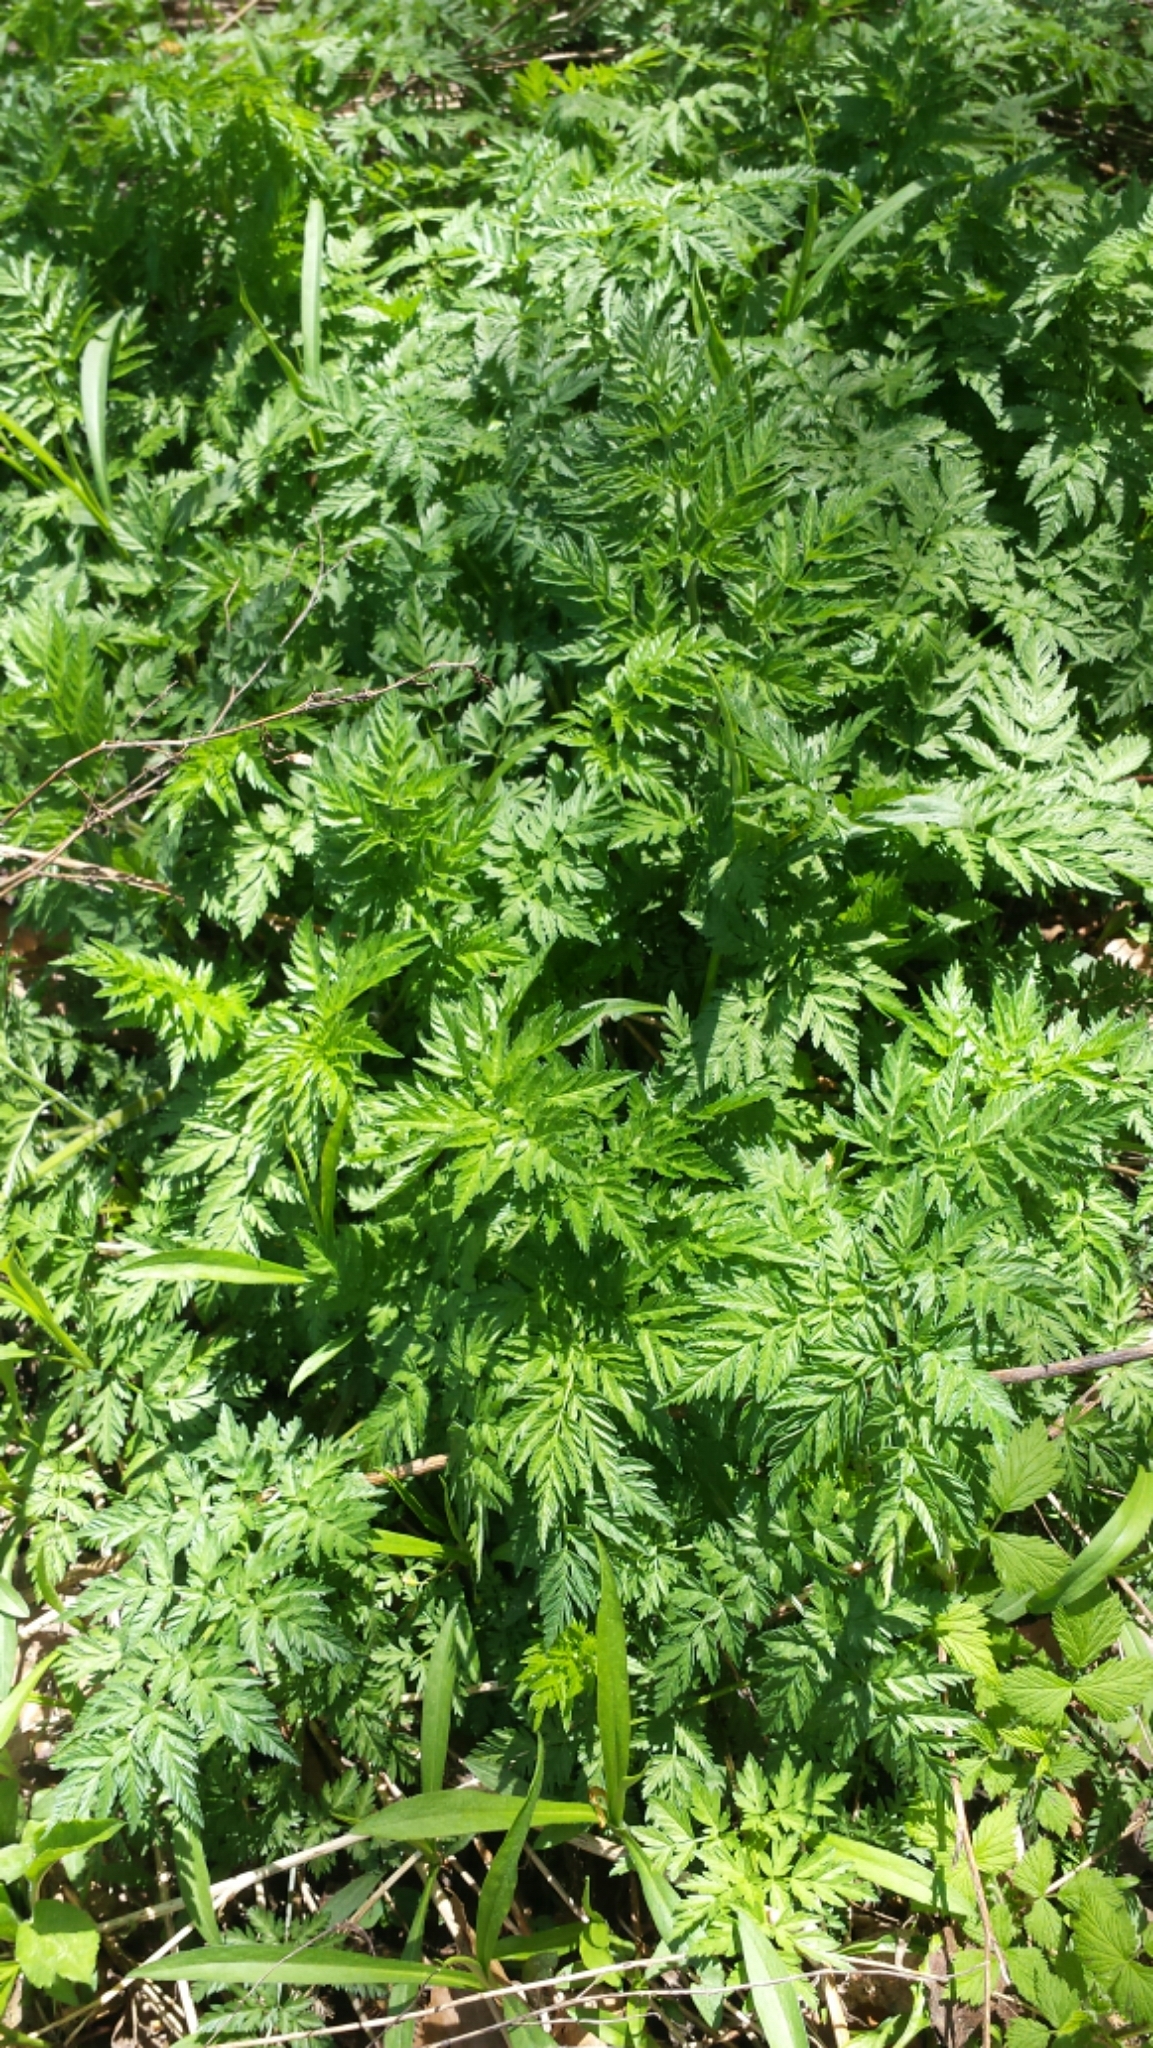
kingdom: Plantae
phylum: Tracheophyta
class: Magnoliopsida
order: Apiales
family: Apiaceae
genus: Anthriscus
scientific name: Anthriscus sylvestris
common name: Cow parsley
